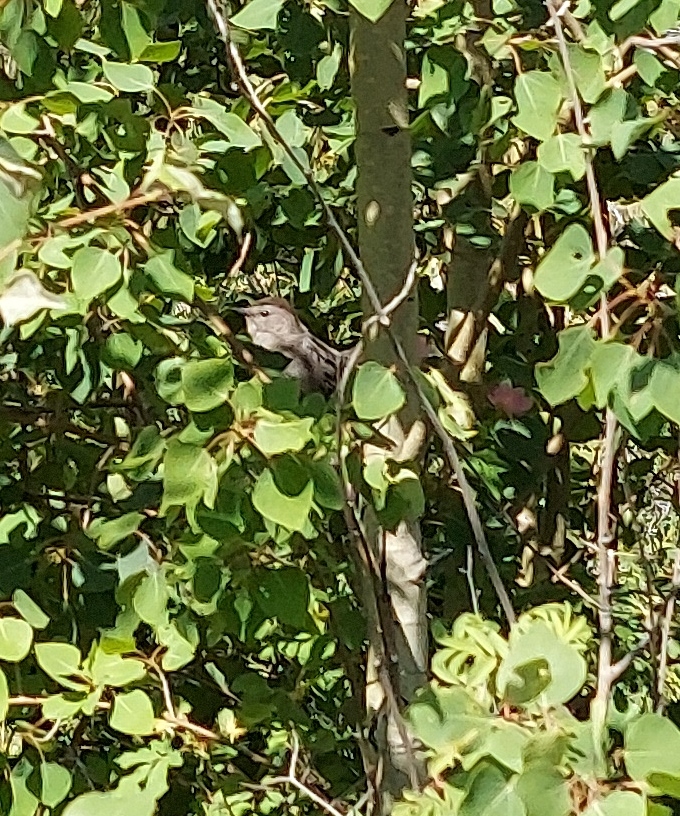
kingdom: Animalia
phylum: Chordata
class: Aves
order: Passeriformes
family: Mimidae
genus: Dumetella
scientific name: Dumetella carolinensis
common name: Gray catbird
